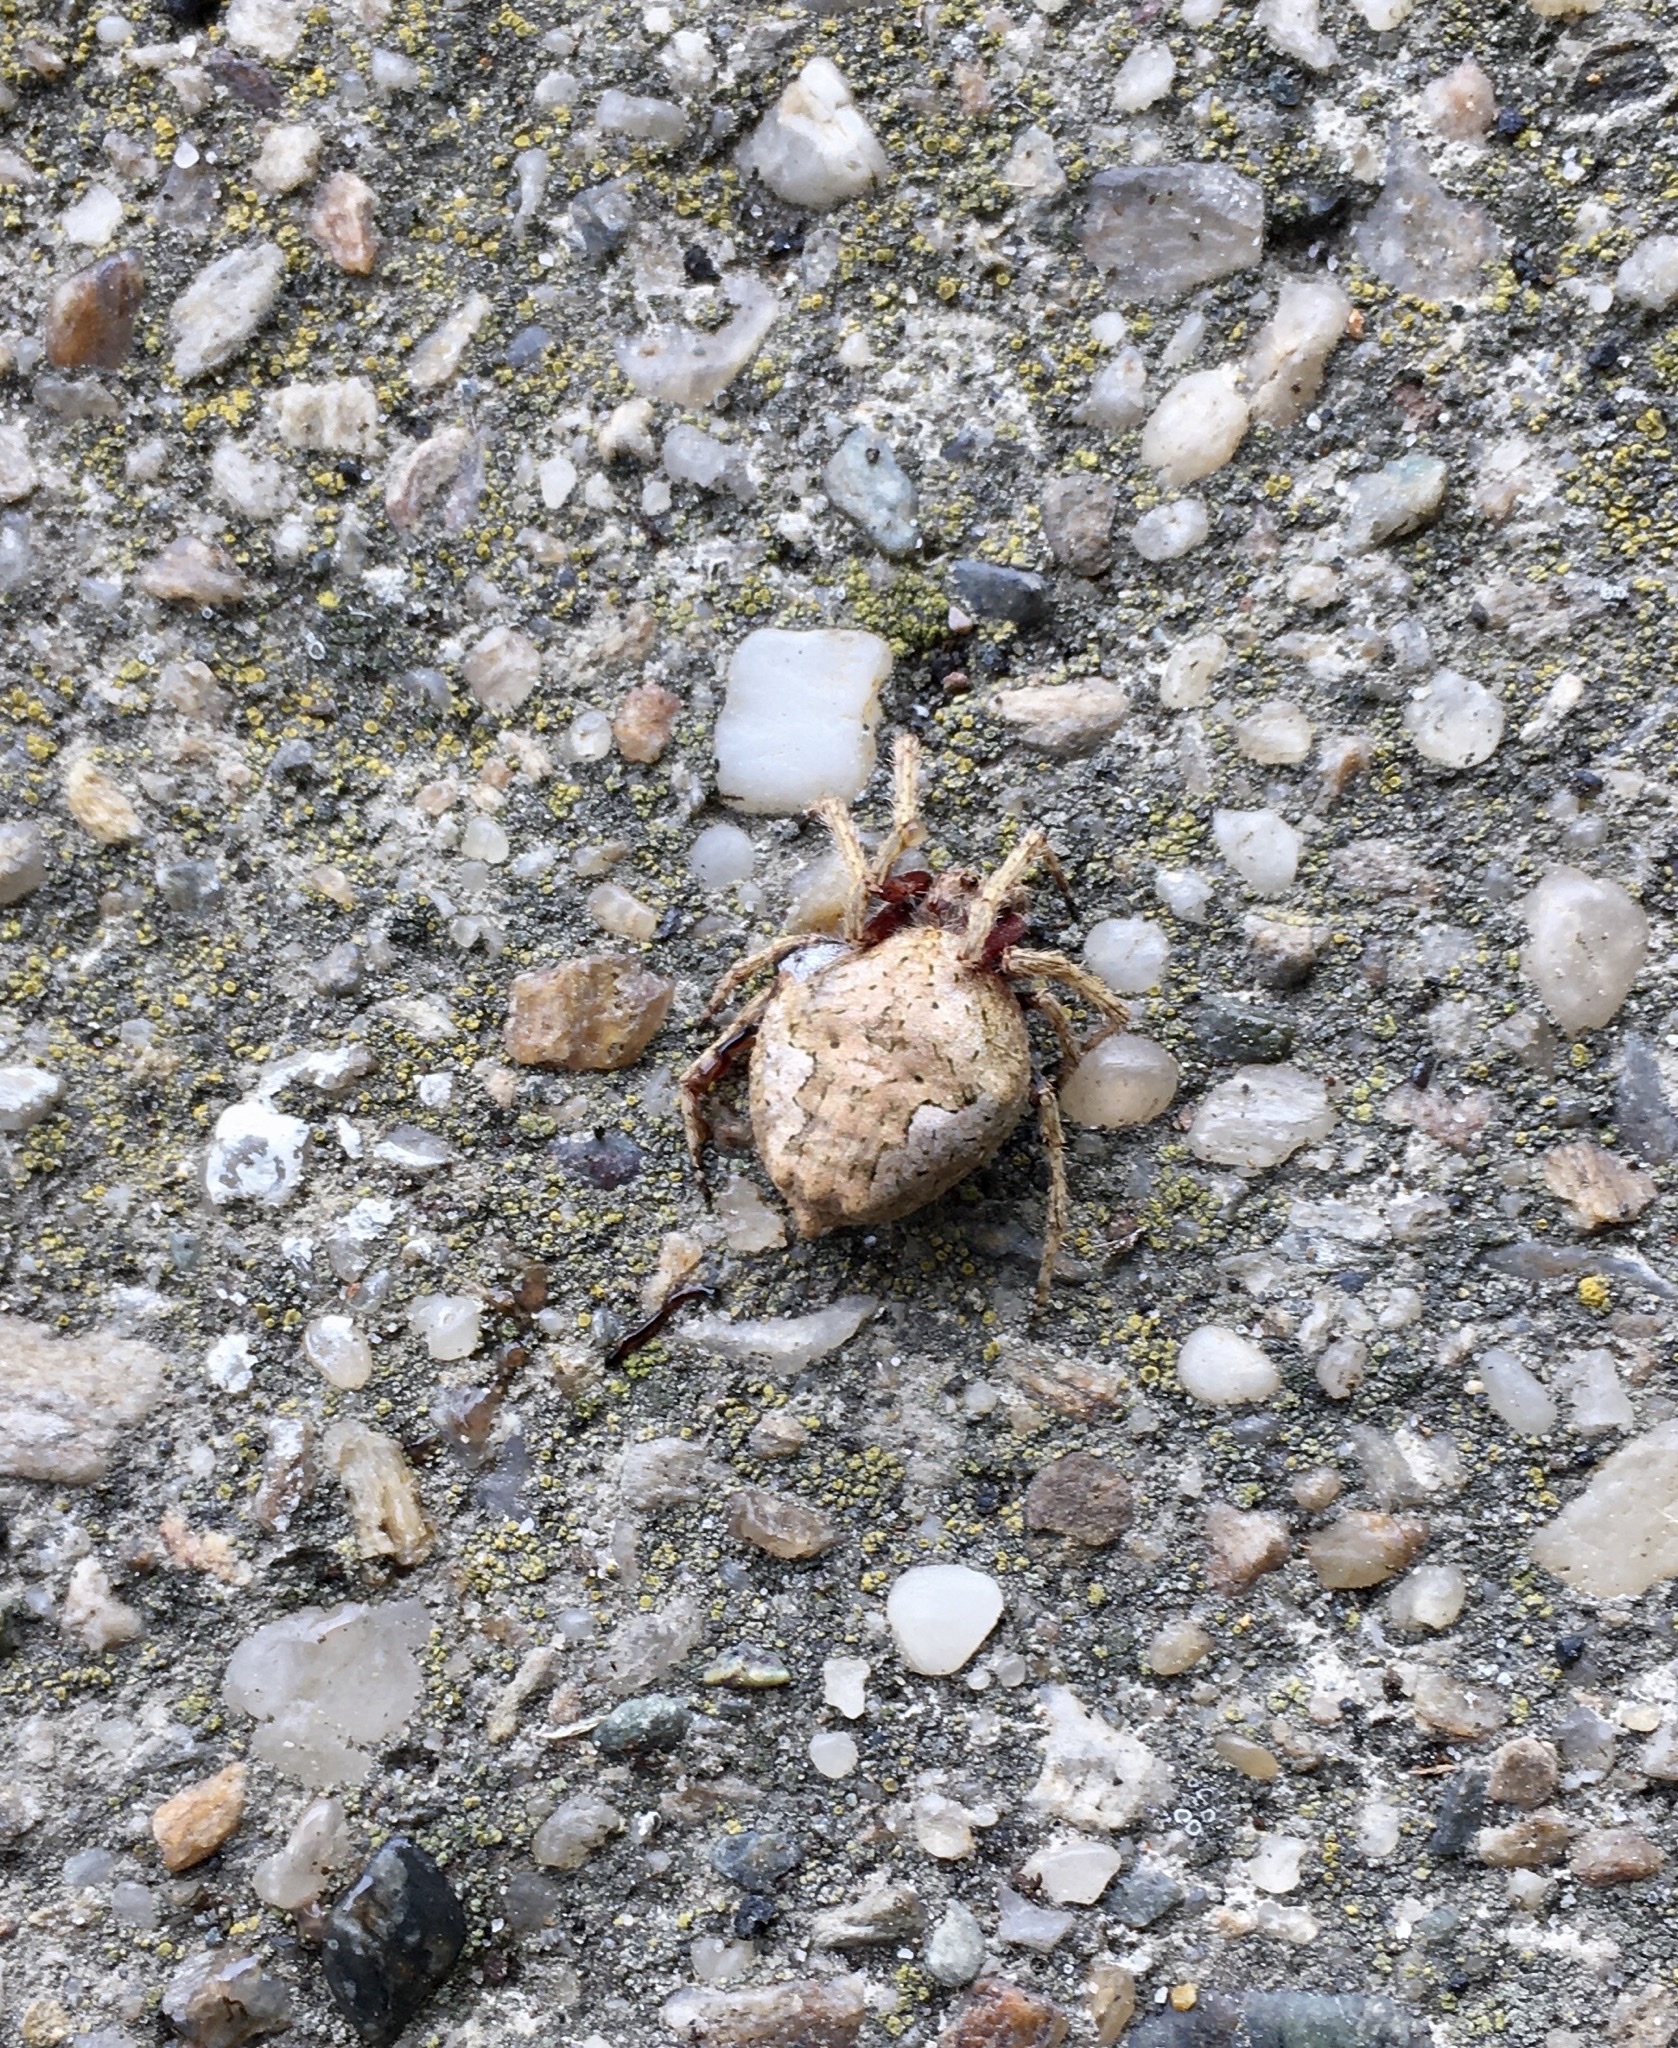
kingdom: Animalia
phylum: Arthropoda
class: Arachnida
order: Araneae
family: Araneidae
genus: Eriophora
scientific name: Eriophora pustulosa
